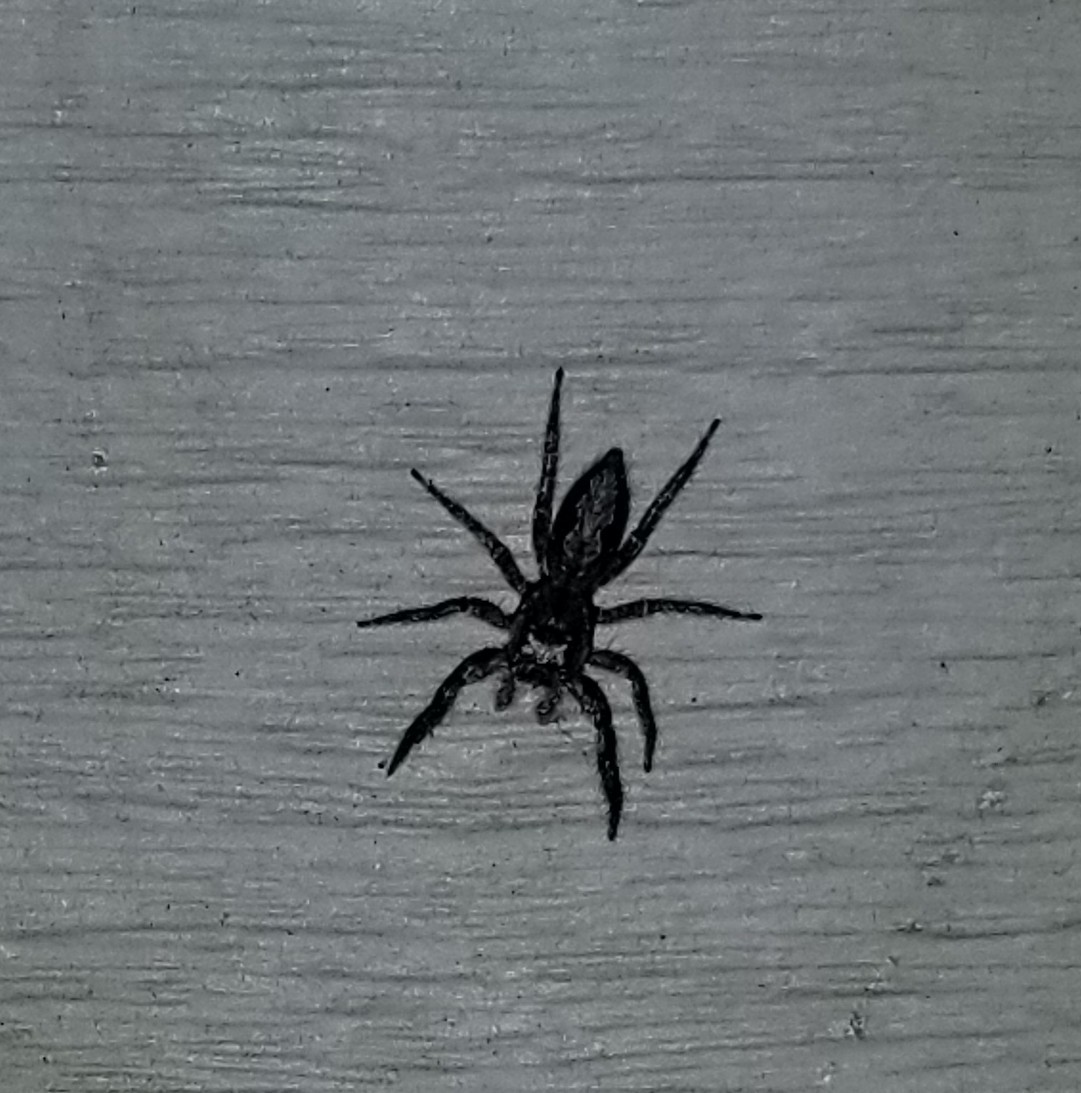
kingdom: Animalia
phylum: Arthropoda
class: Arachnida
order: Araneae
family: Salticidae
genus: Platycryptus
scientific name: Platycryptus undatus
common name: Tan jumping spider
